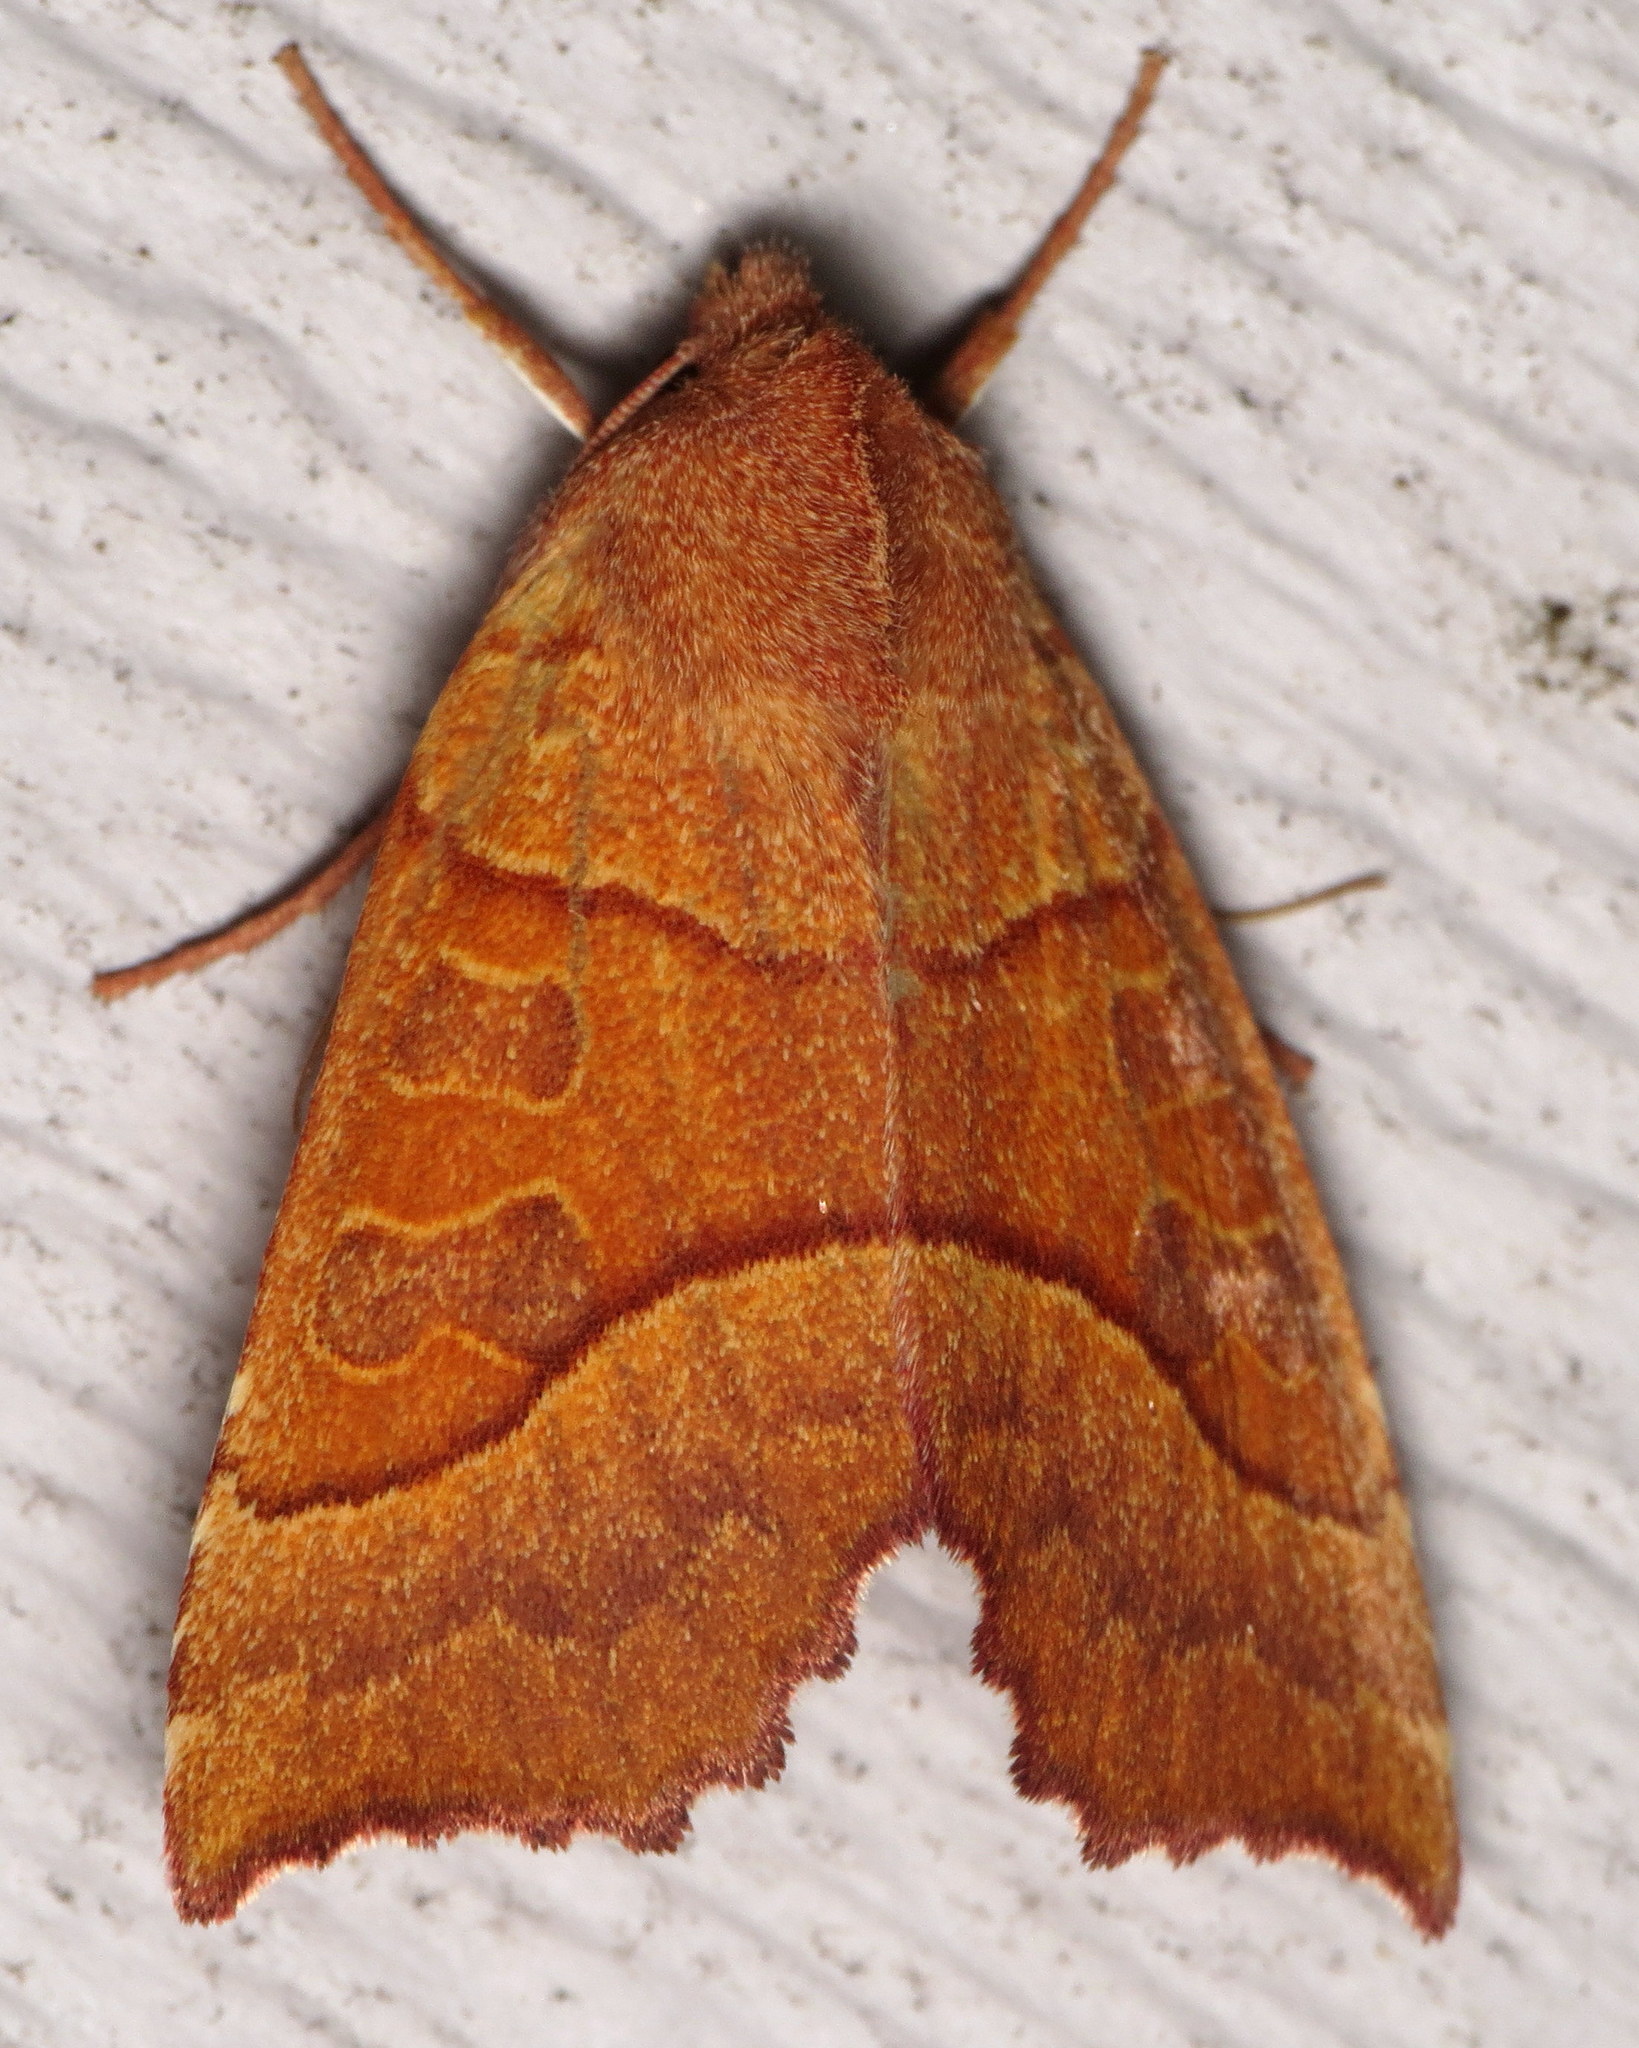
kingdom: Animalia
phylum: Arthropoda
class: Insecta
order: Lepidoptera
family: Noctuidae
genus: Eucirroedia
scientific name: Eucirroedia pampina
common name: Scalloped sallow
